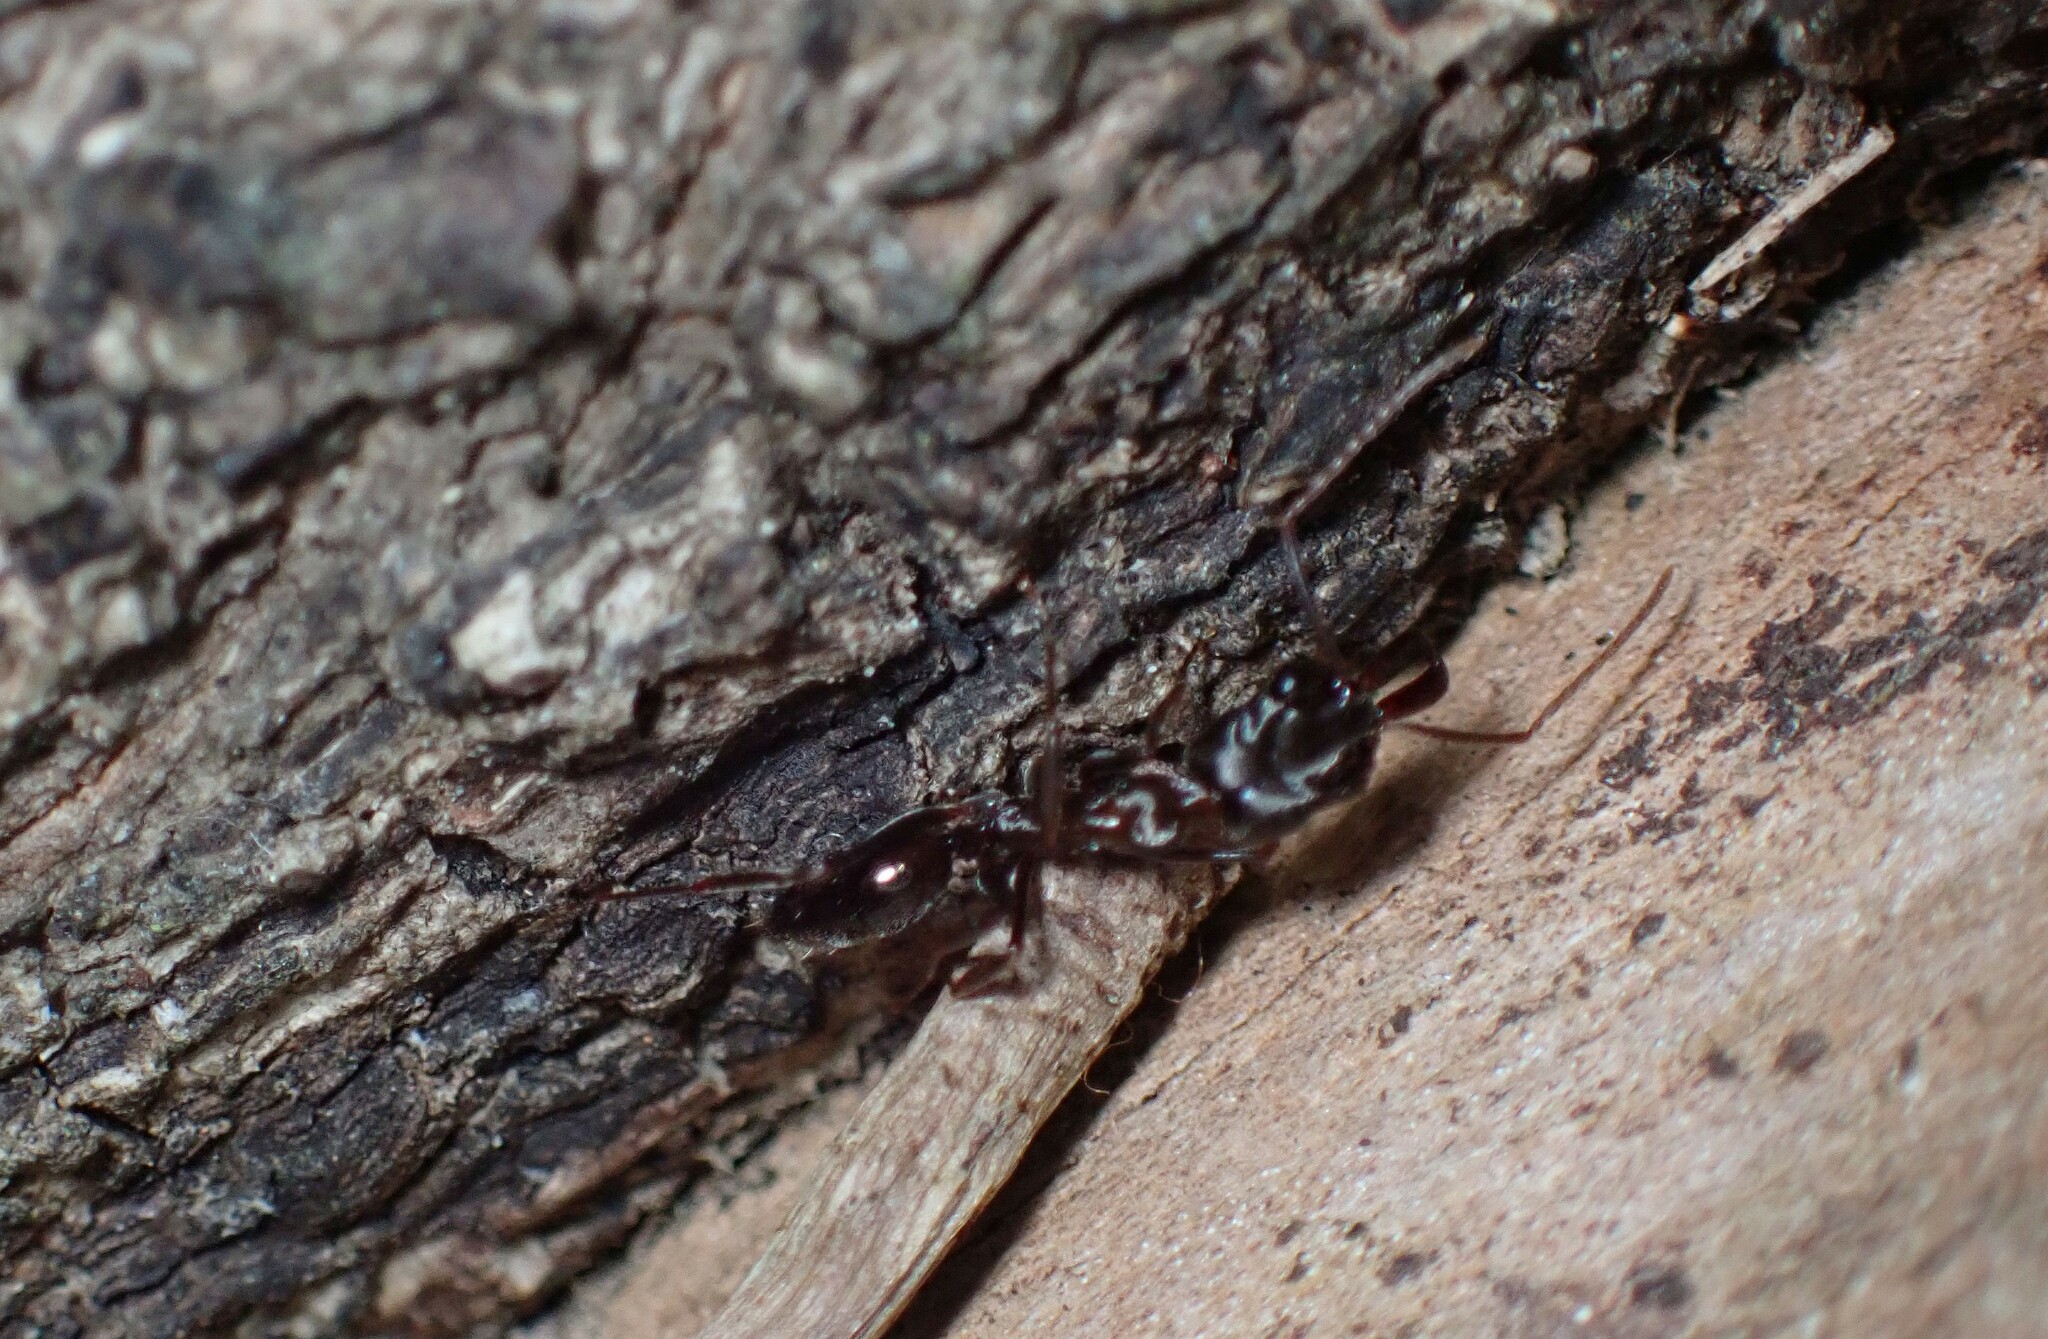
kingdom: Animalia
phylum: Arthropoda
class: Insecta
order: Hymenoptera
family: Formicidae
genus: Odontomachus
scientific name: Odontomachus simillimus
